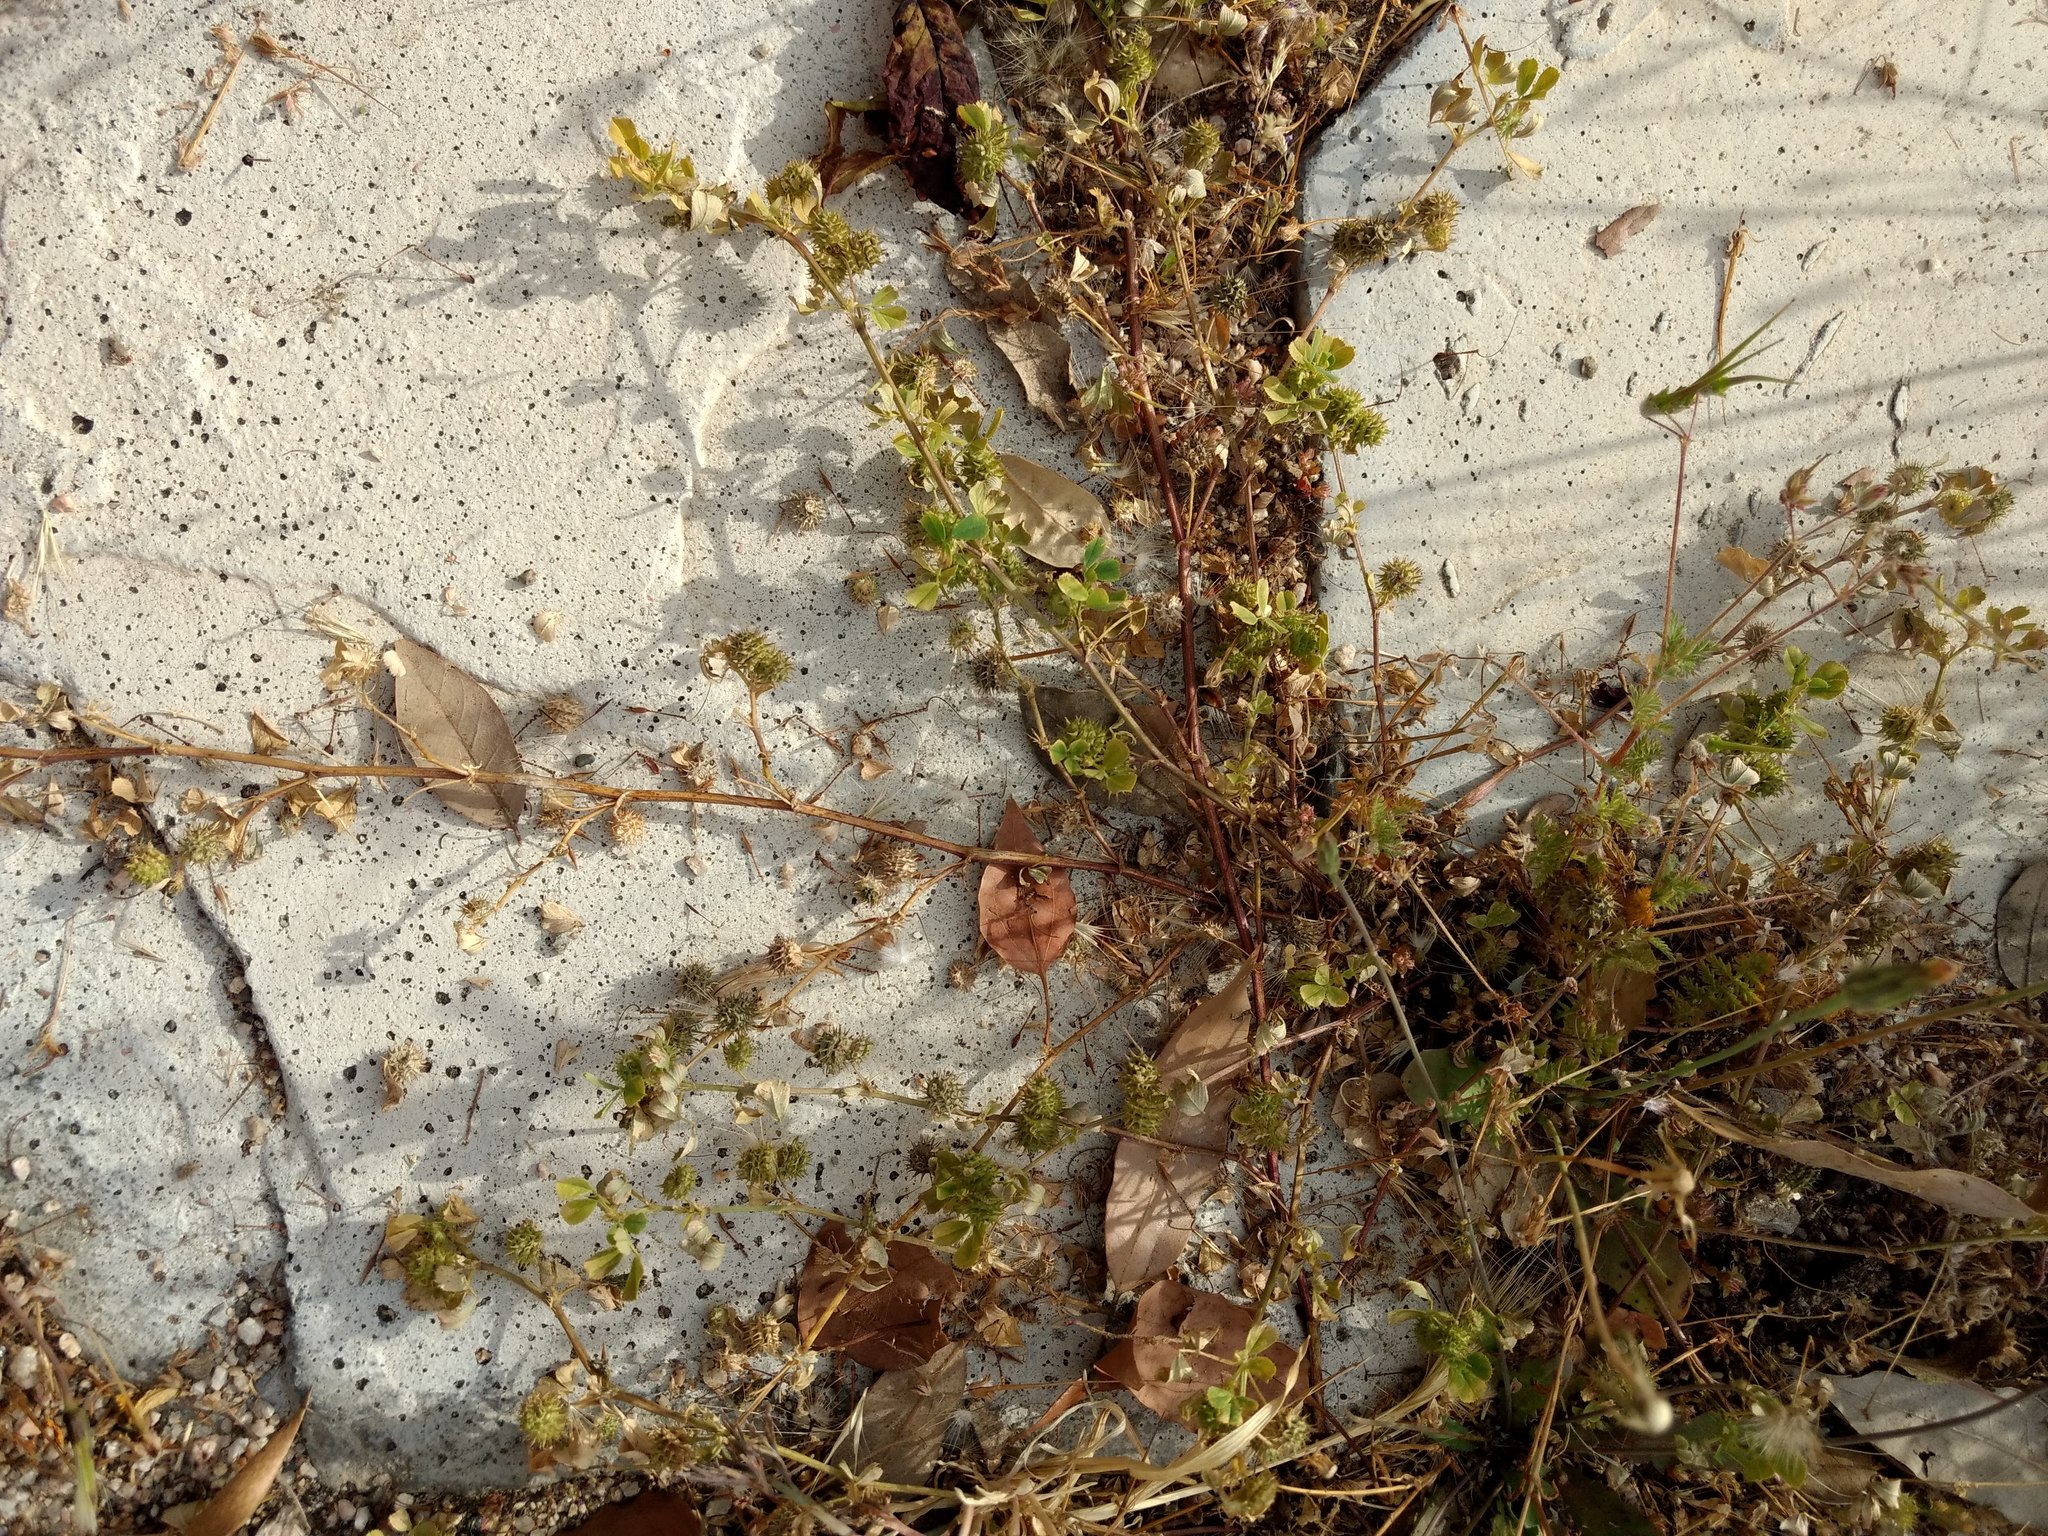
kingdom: Plantae
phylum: Tracheophyta
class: Magnoliopsida
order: Fabales
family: Fabaceae
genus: Medicago
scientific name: Medicago polymorpha
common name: Burclover
